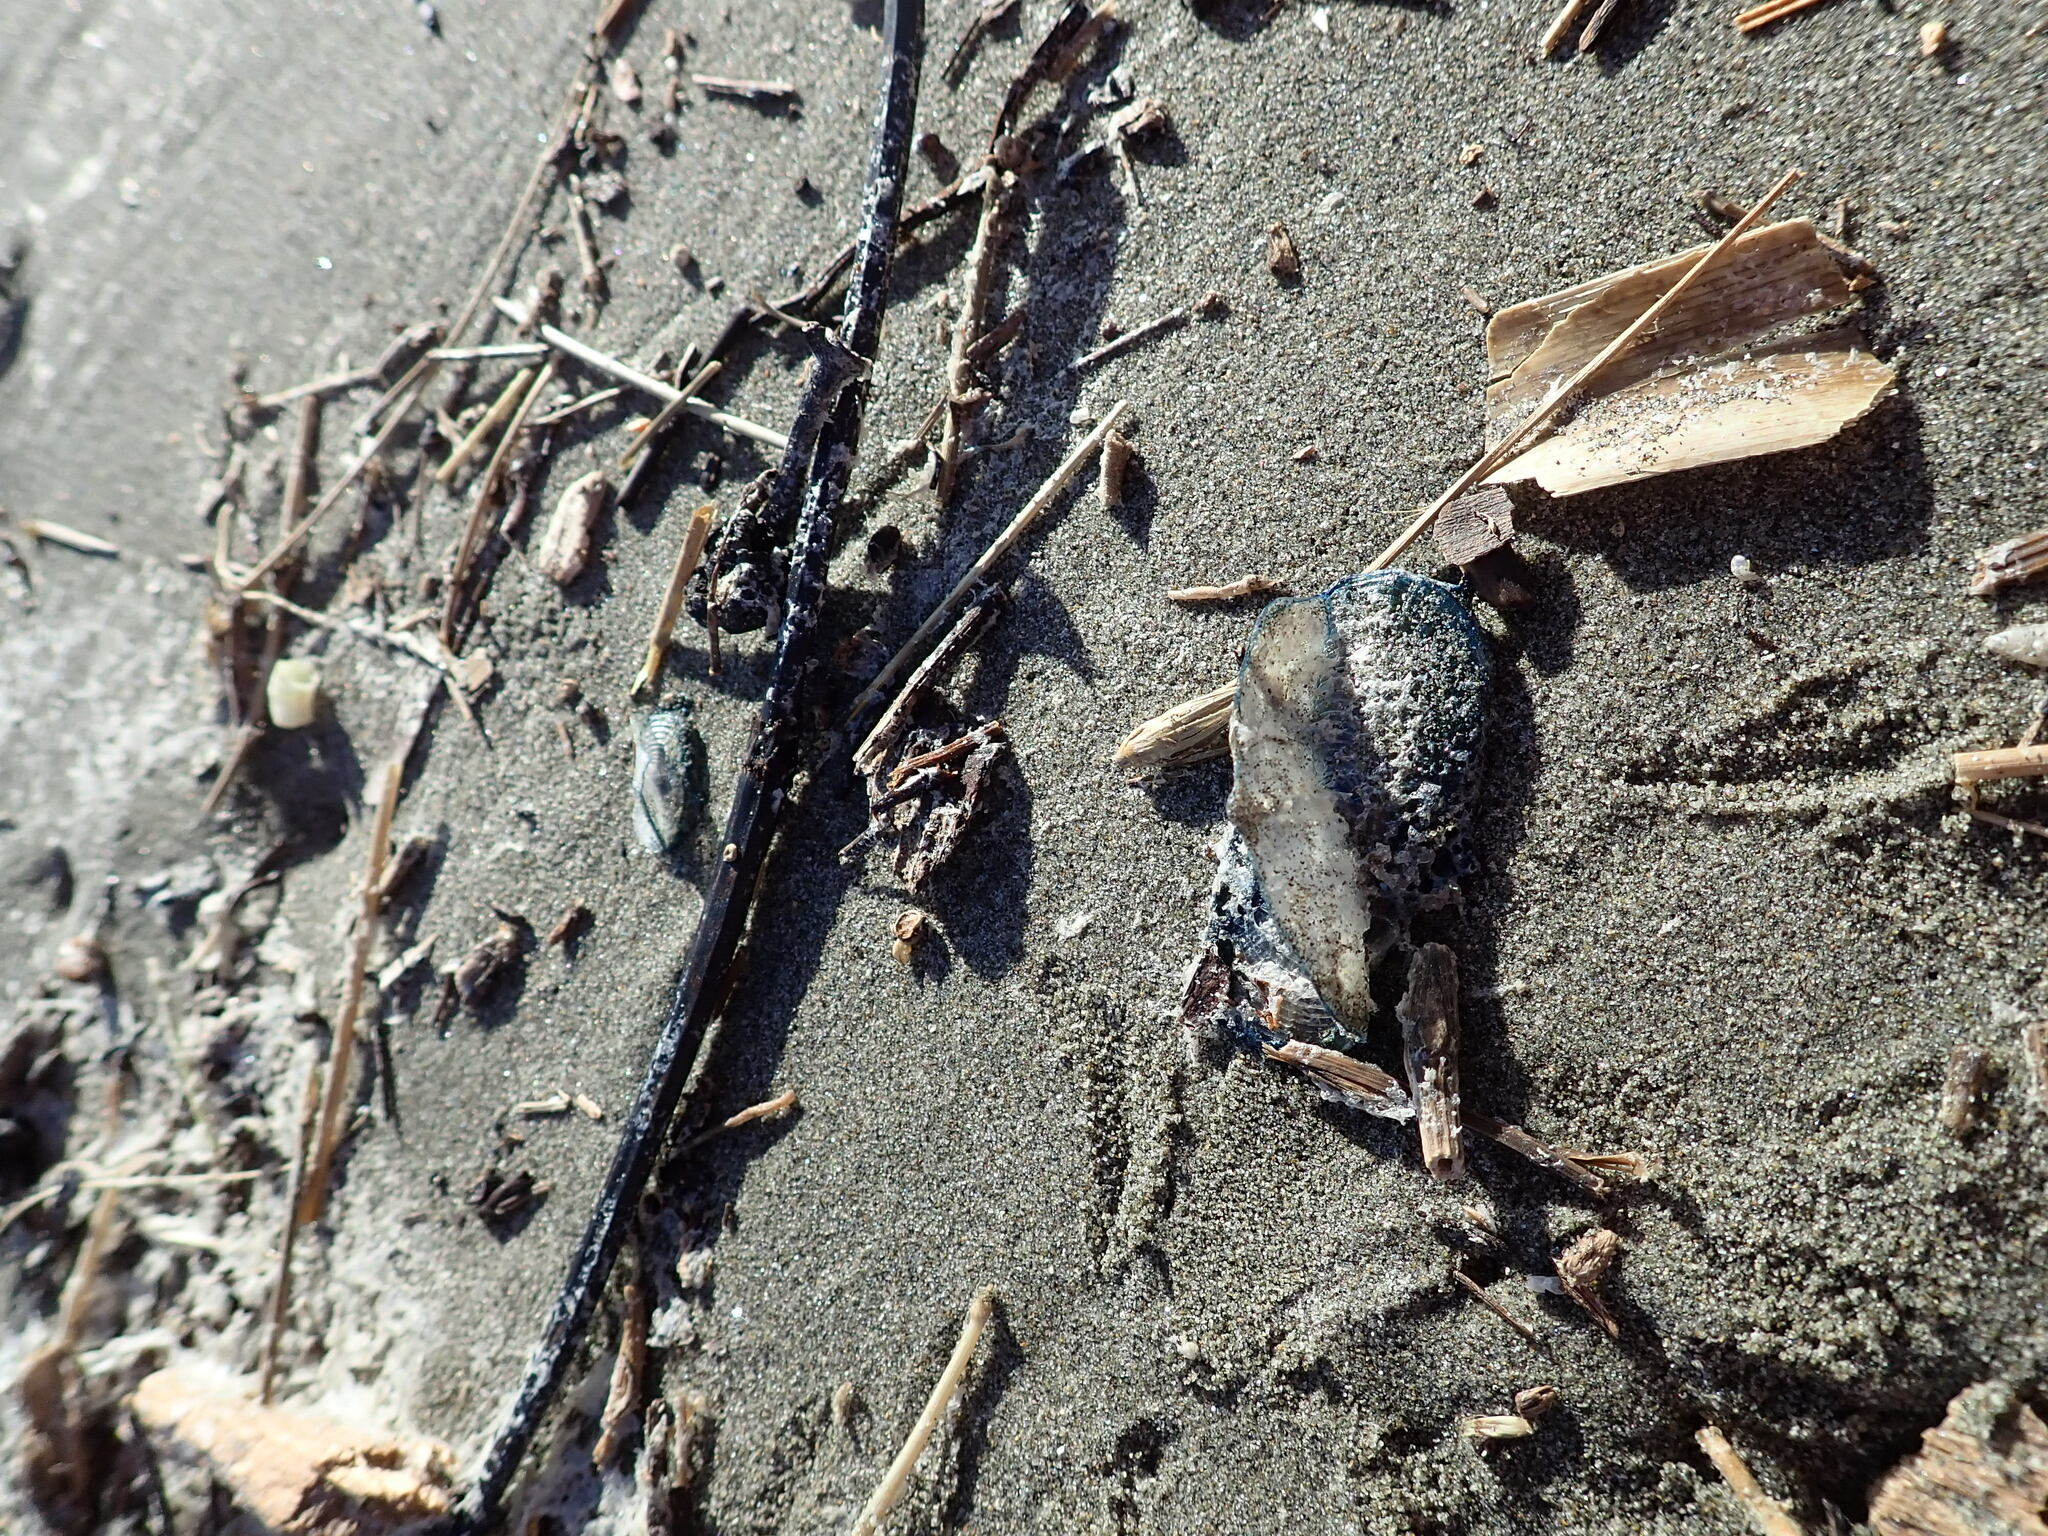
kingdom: Animalia
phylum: Cnidaria
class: Hydrozoa
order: Anthoathecata
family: Porpitidae
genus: Velella
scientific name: Velella velella
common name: By-the-wind-sailor
